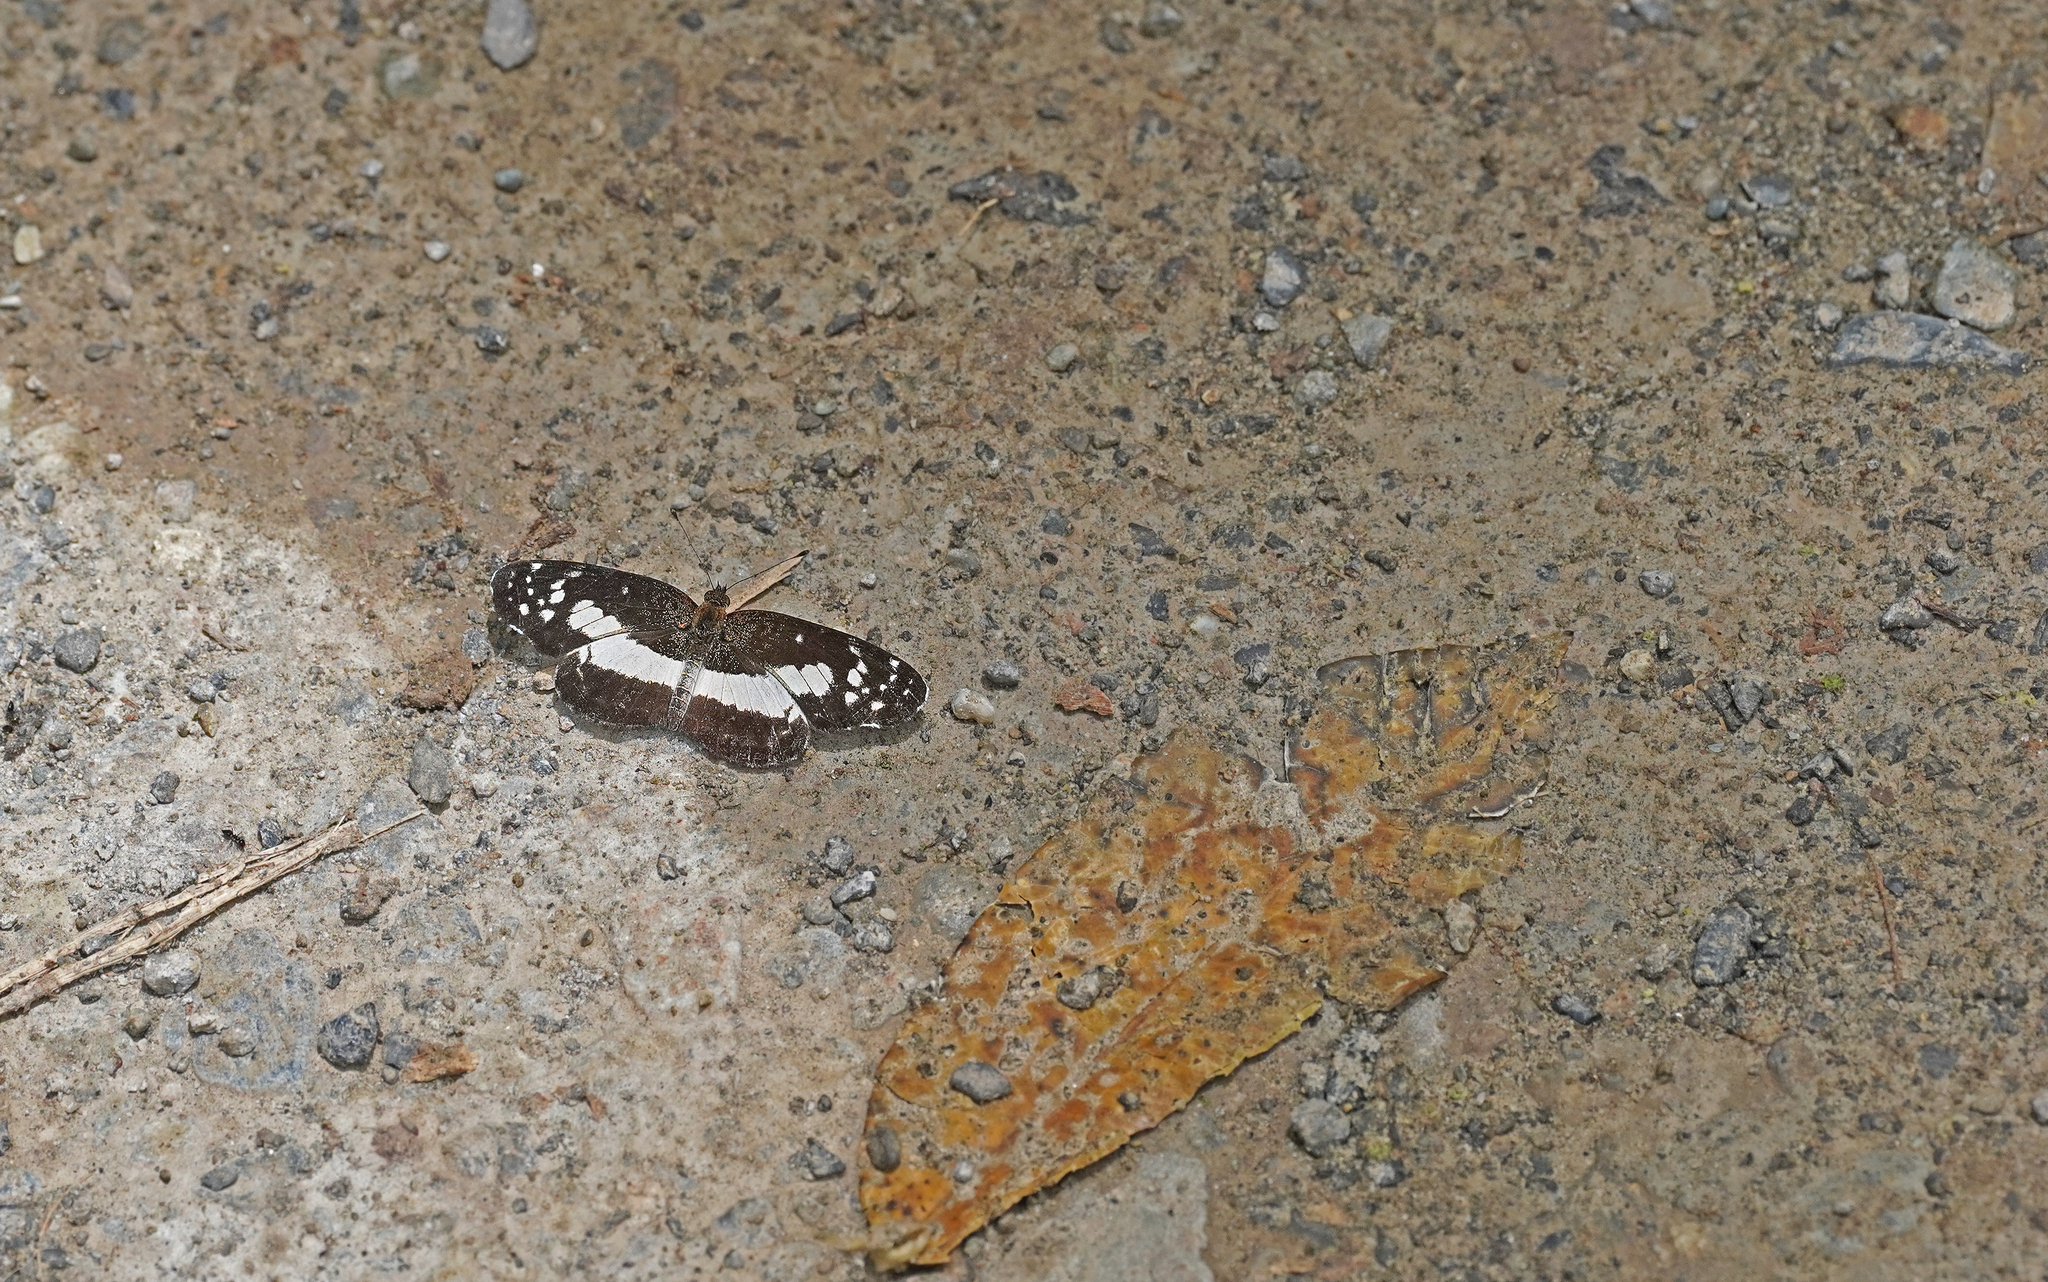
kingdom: Animalia
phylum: Arthropoda
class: Insecta
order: Lepidoptera
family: Nymphalidae
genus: Castilia
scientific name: Castilia ofella
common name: White-dotted crescent
